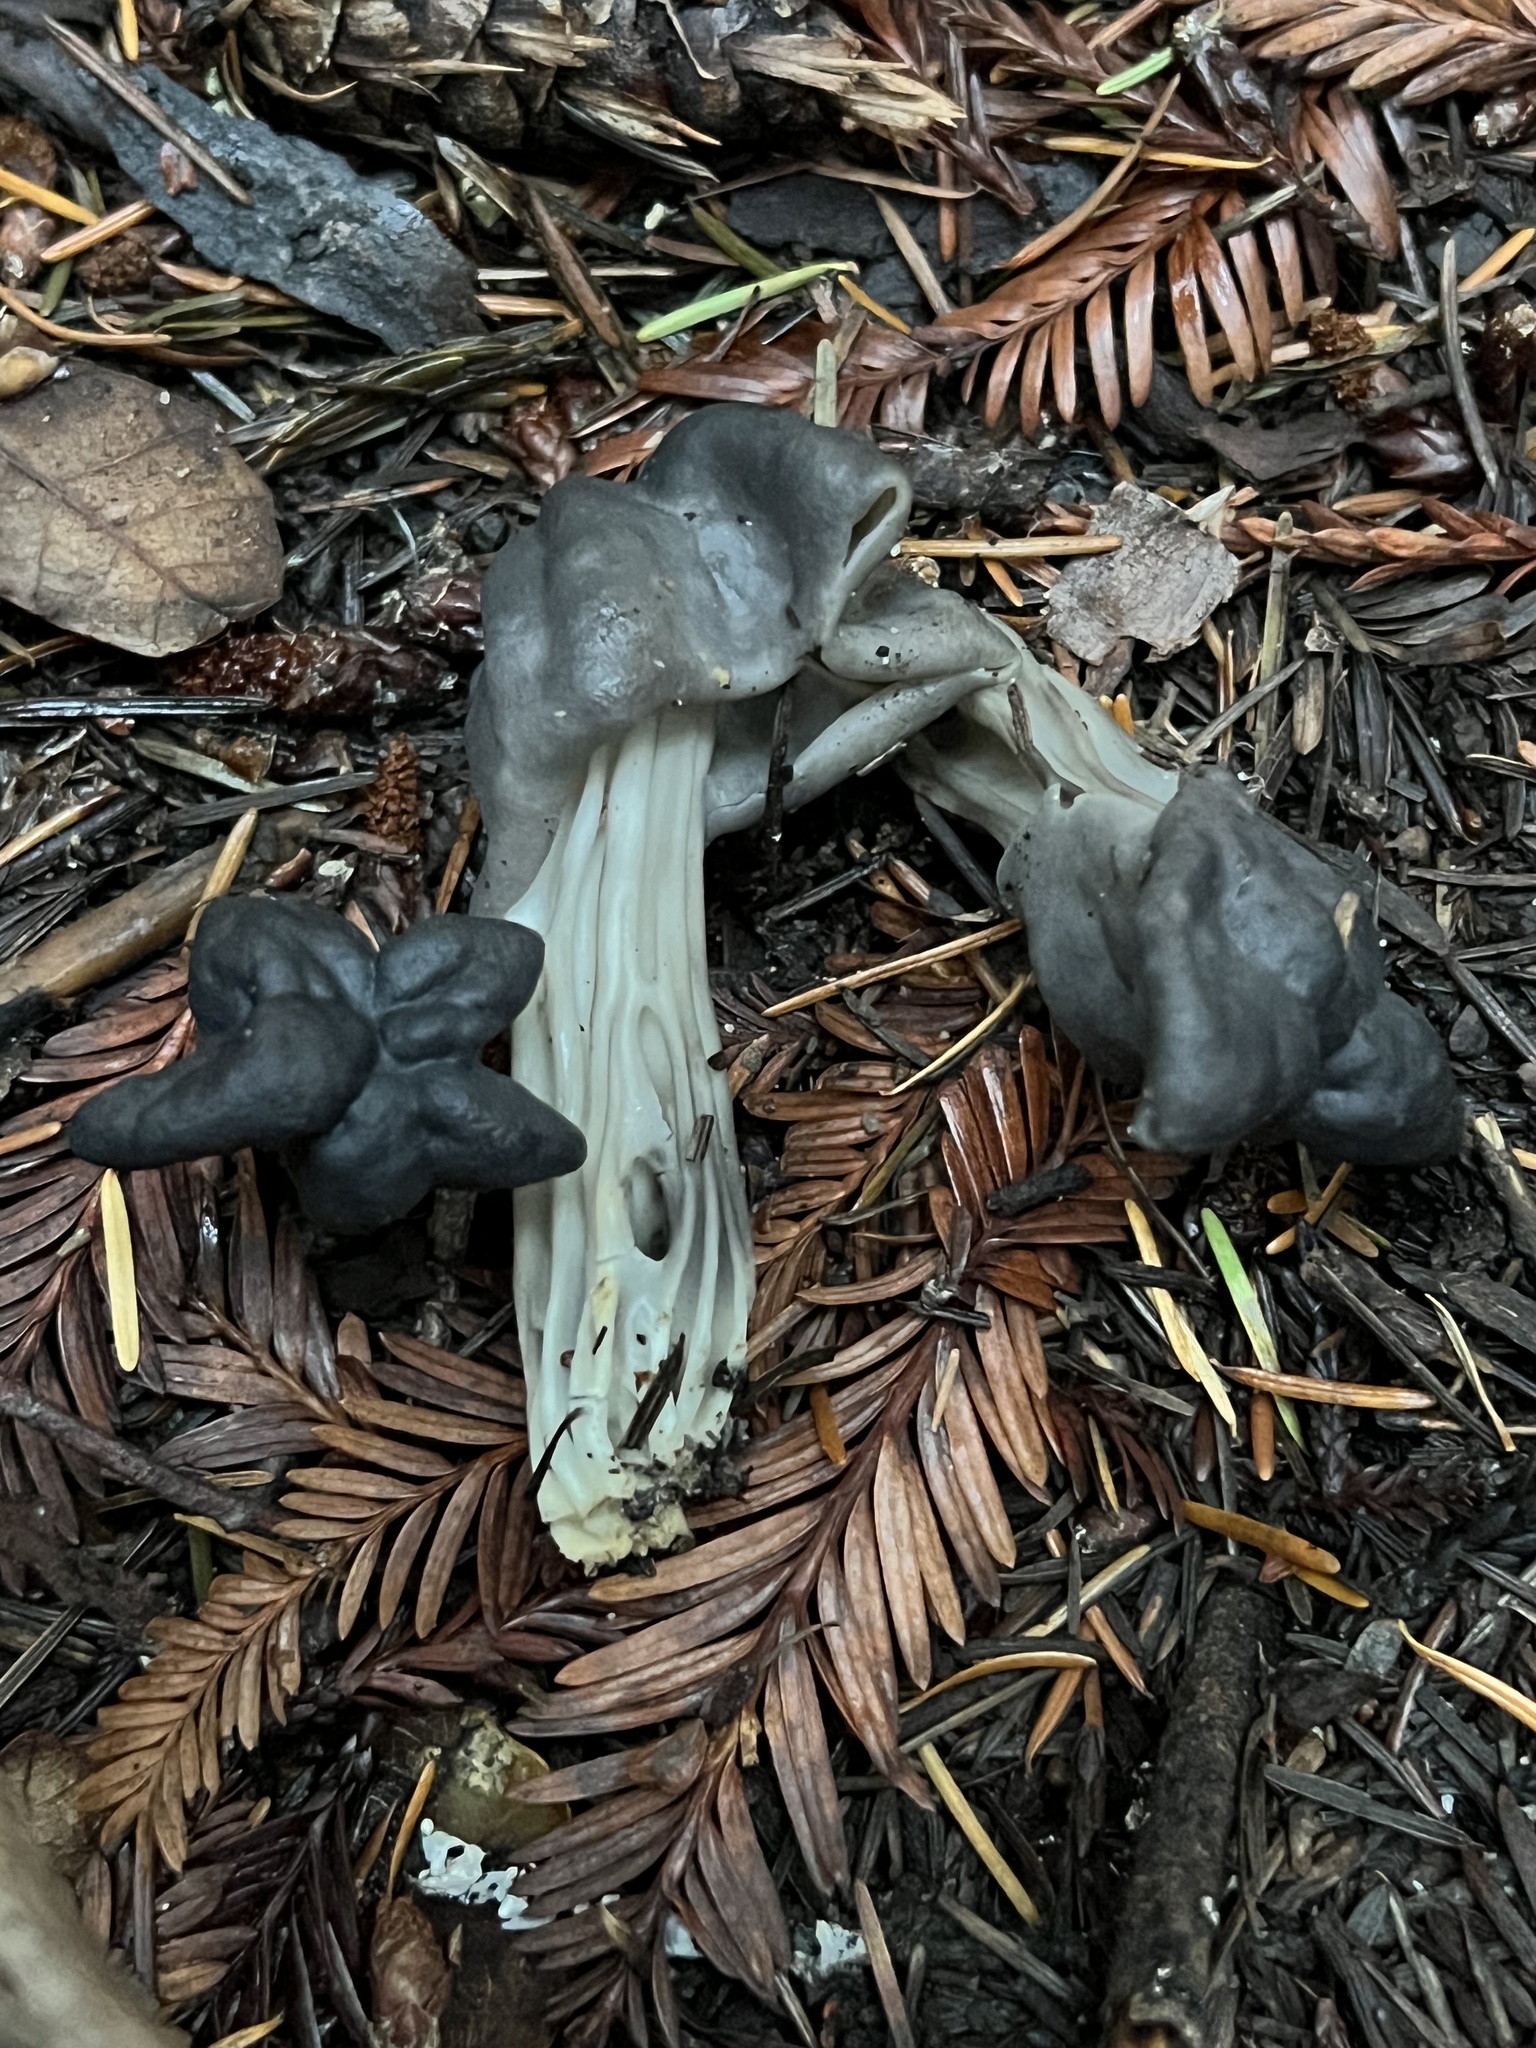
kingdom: Fungi
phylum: Ascomycota
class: Pezizomycetes
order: Pezizales
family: Helvellaceae
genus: Helvella
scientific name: Helvella vespertina
